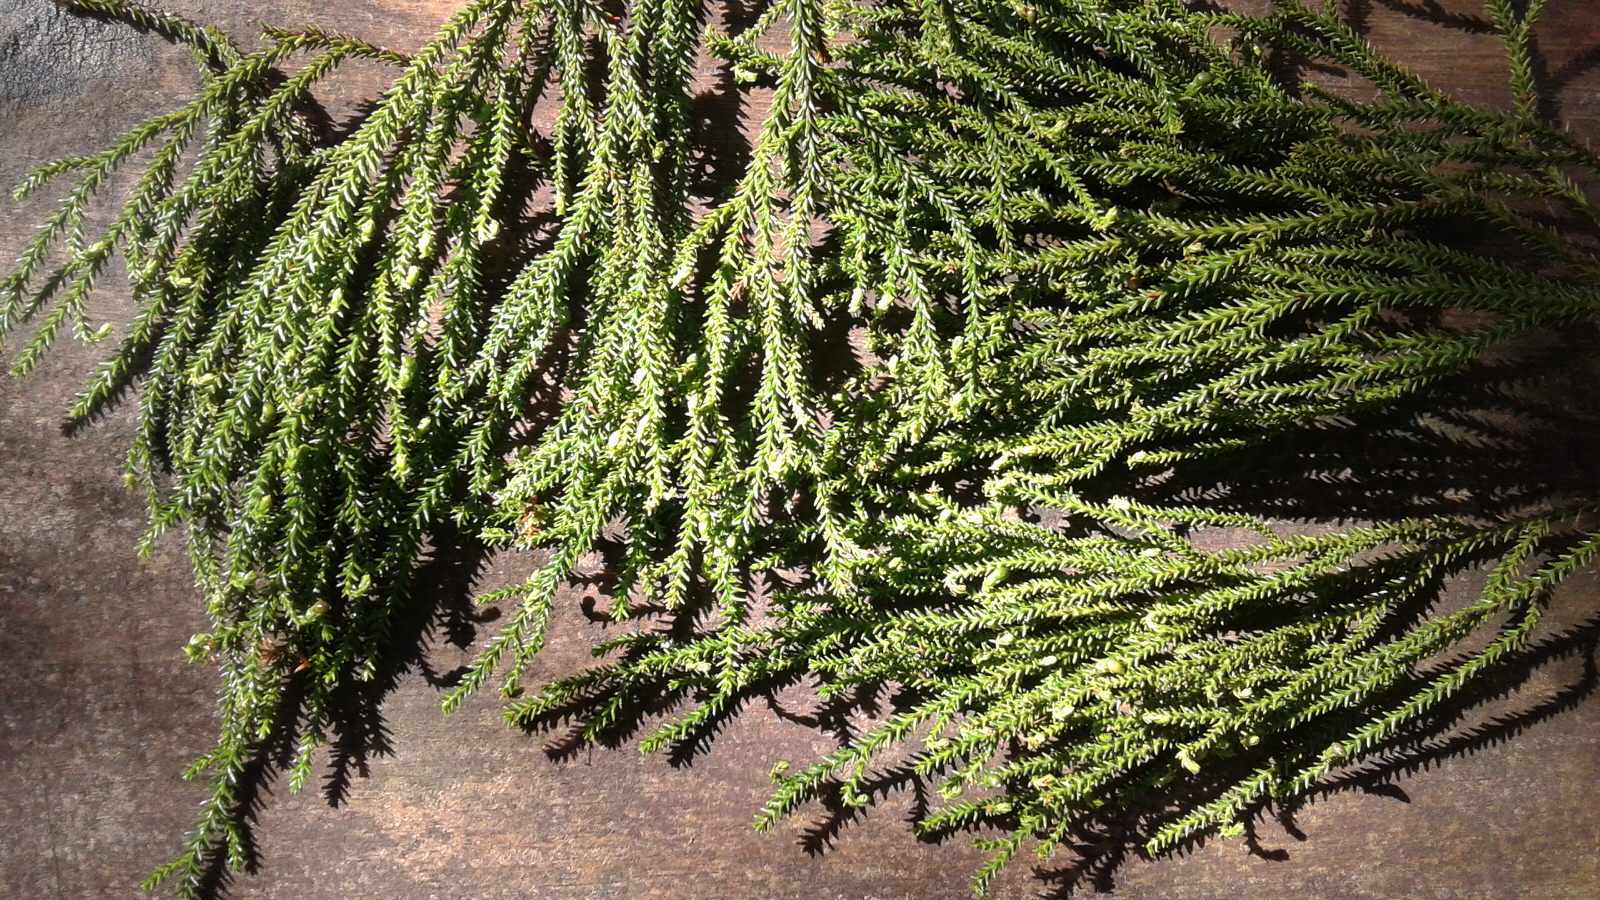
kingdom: Plantae
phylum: Tracheophyta
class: Pinopsida
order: Pinales
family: Podocarpaceae
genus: Dacrydium
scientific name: Dacrydium cupressinum
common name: Red pine
